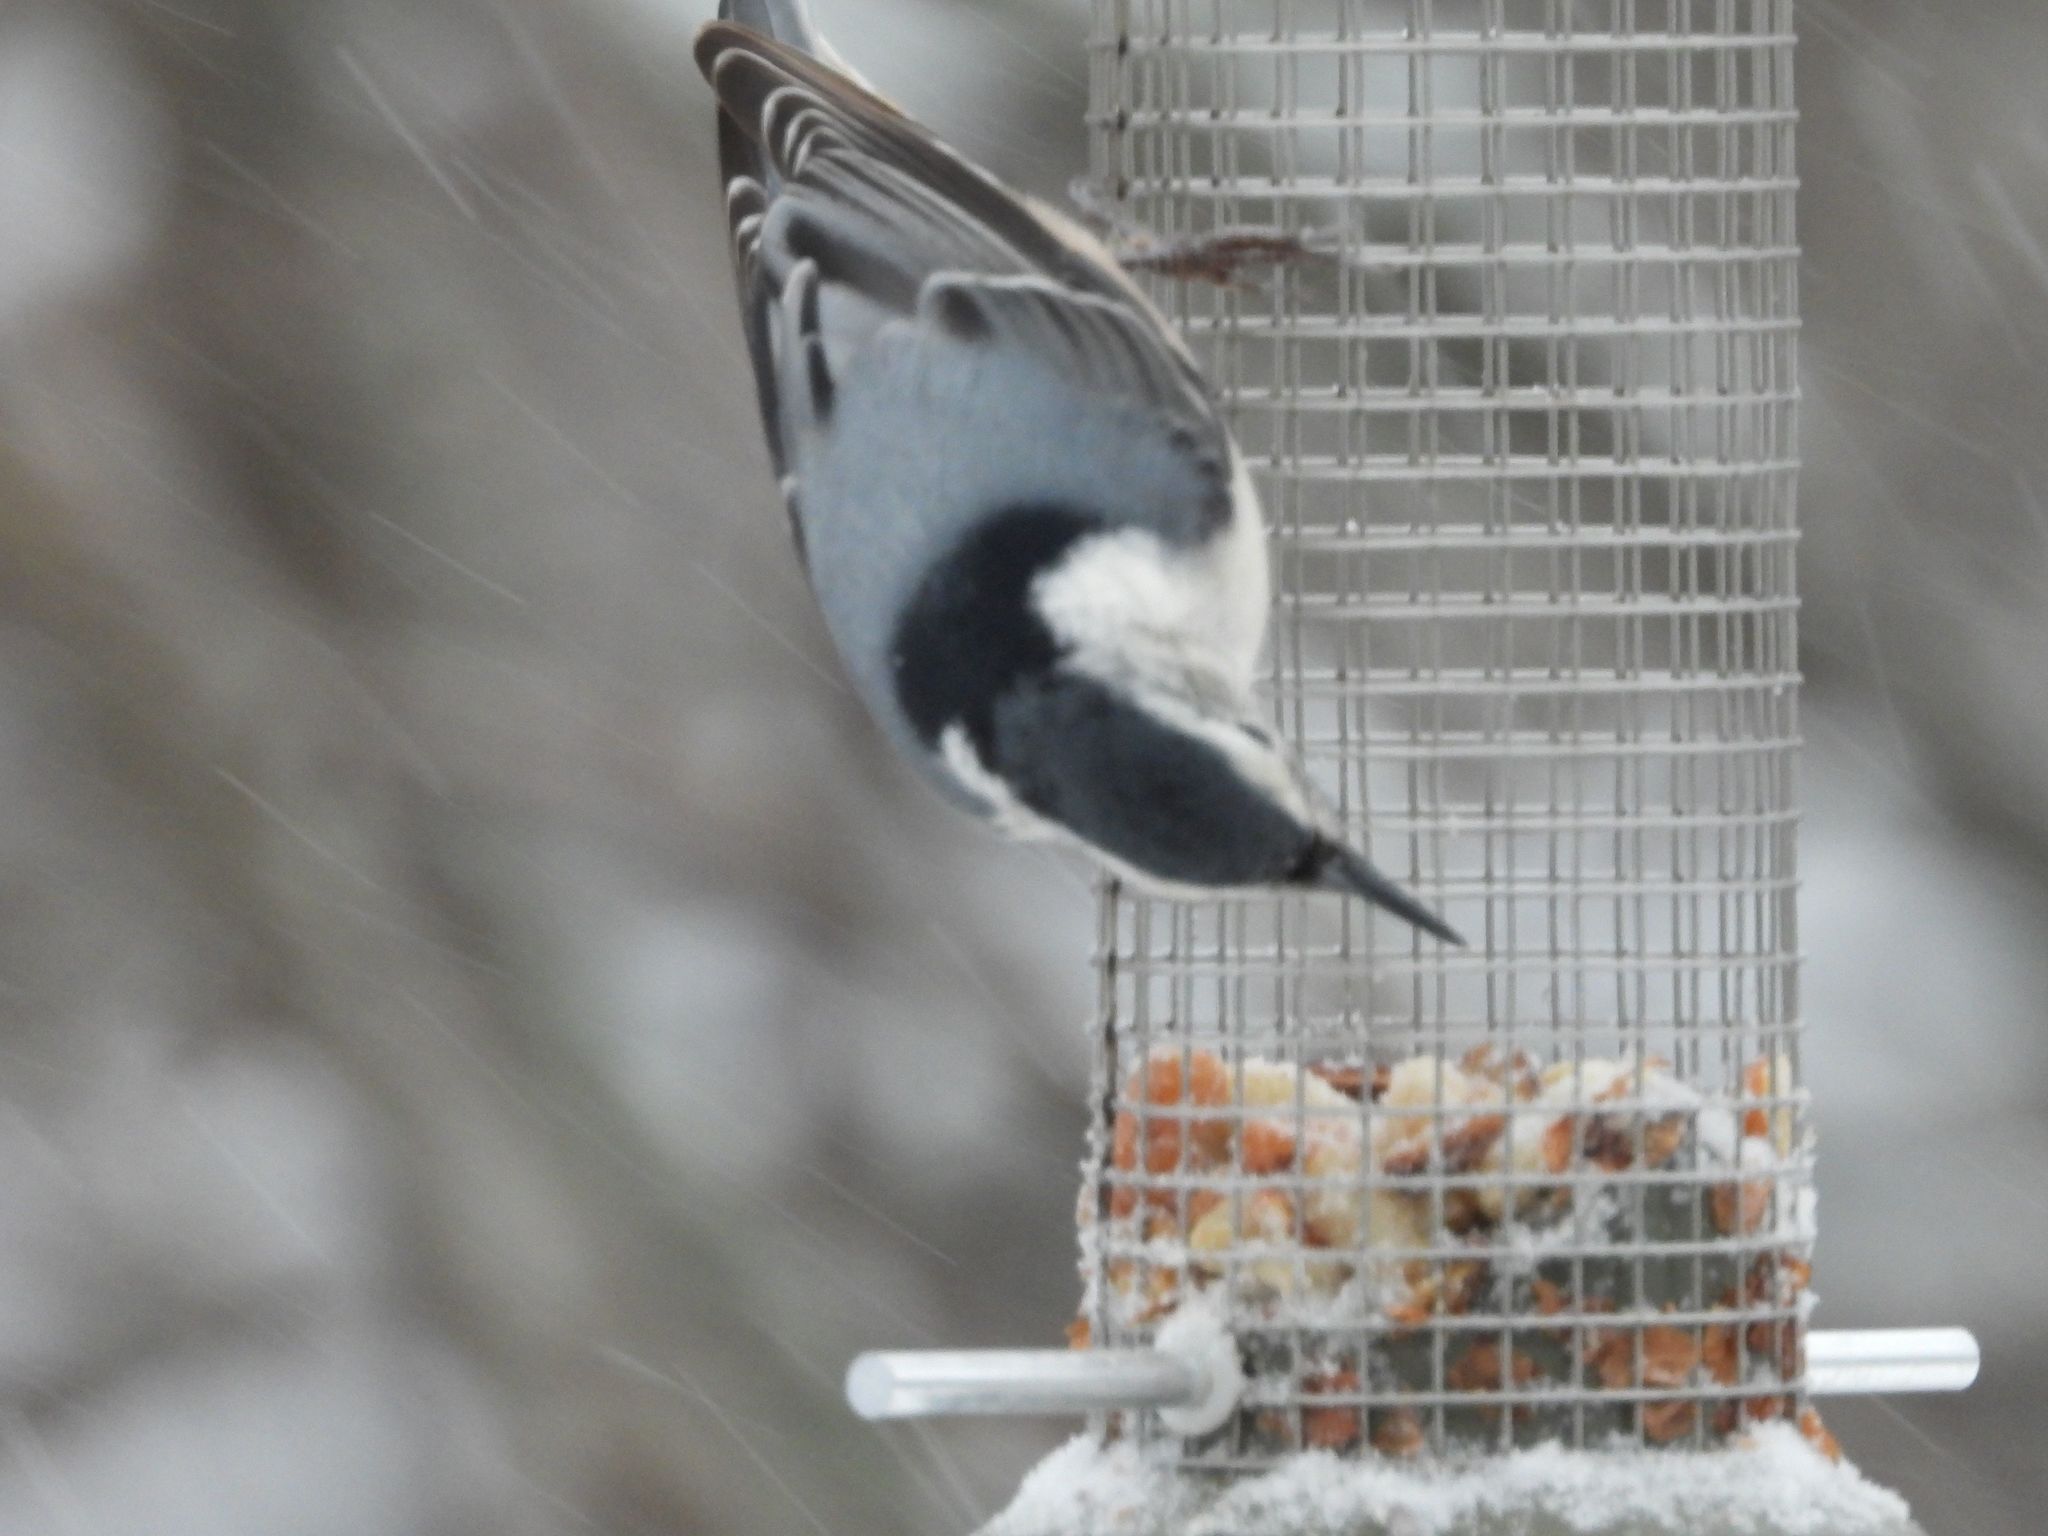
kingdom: Animalia
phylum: Chordata
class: Aves
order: Passeriformes
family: Sittidae
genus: Sitta
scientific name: Sitta carolinensis
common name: White-breasted nuthatch
